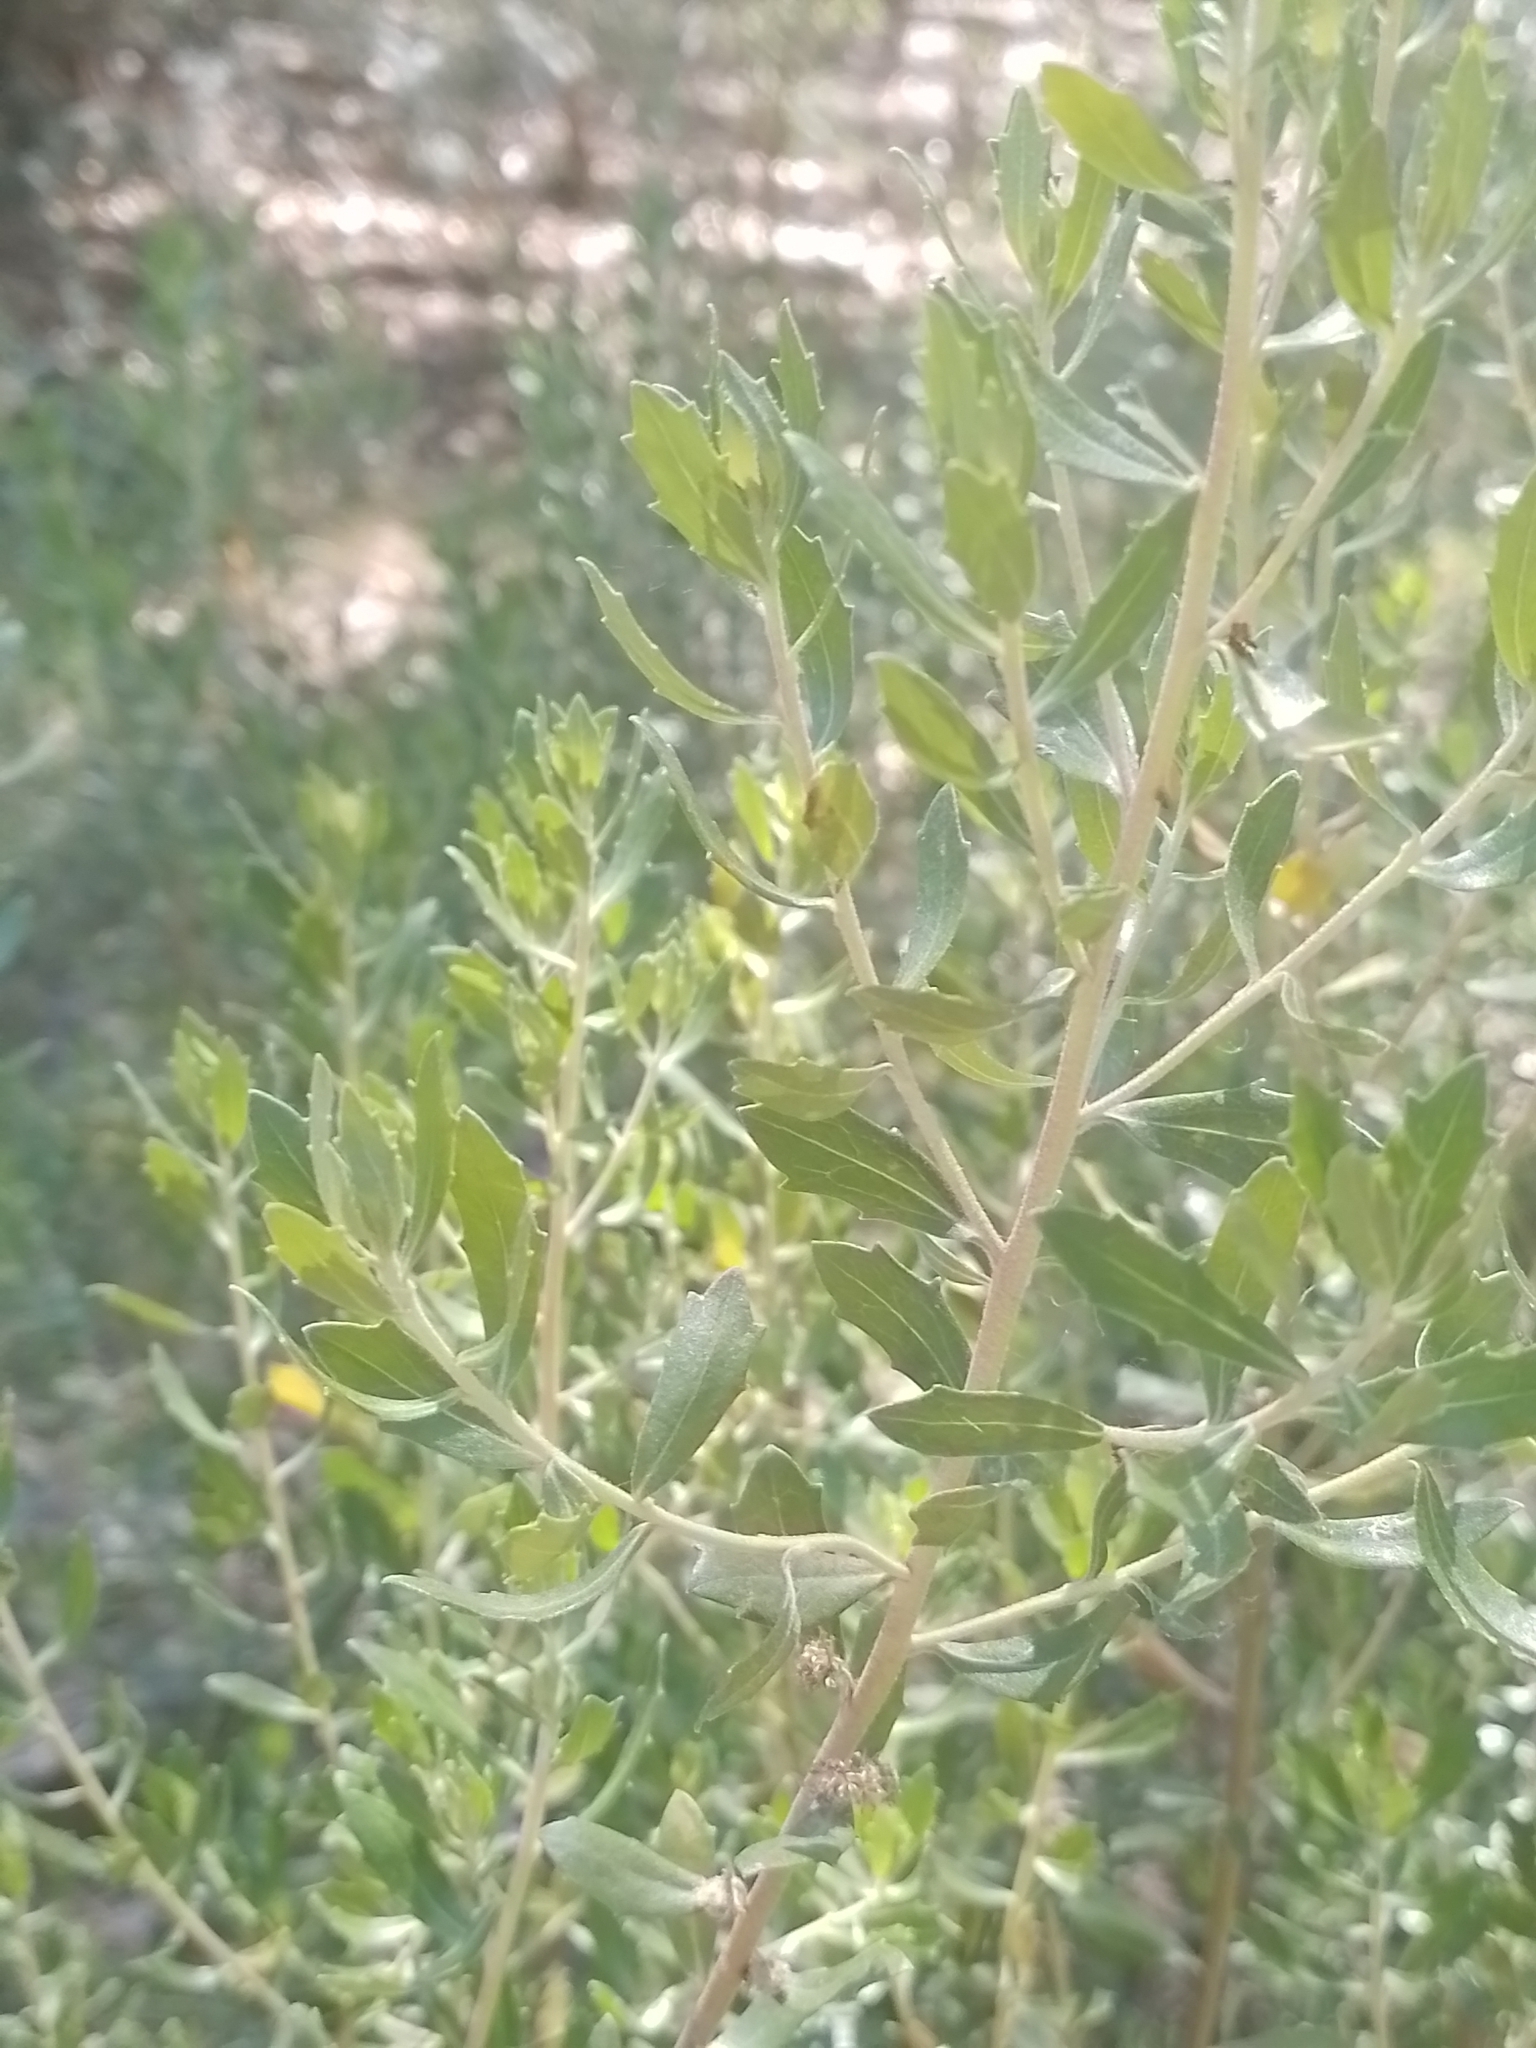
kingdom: Plantae
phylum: Tracheophyta
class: Magnoliopsida
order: Asterales
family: Asteraceae
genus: Baccharis
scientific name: Baccharis dracunculifolia
